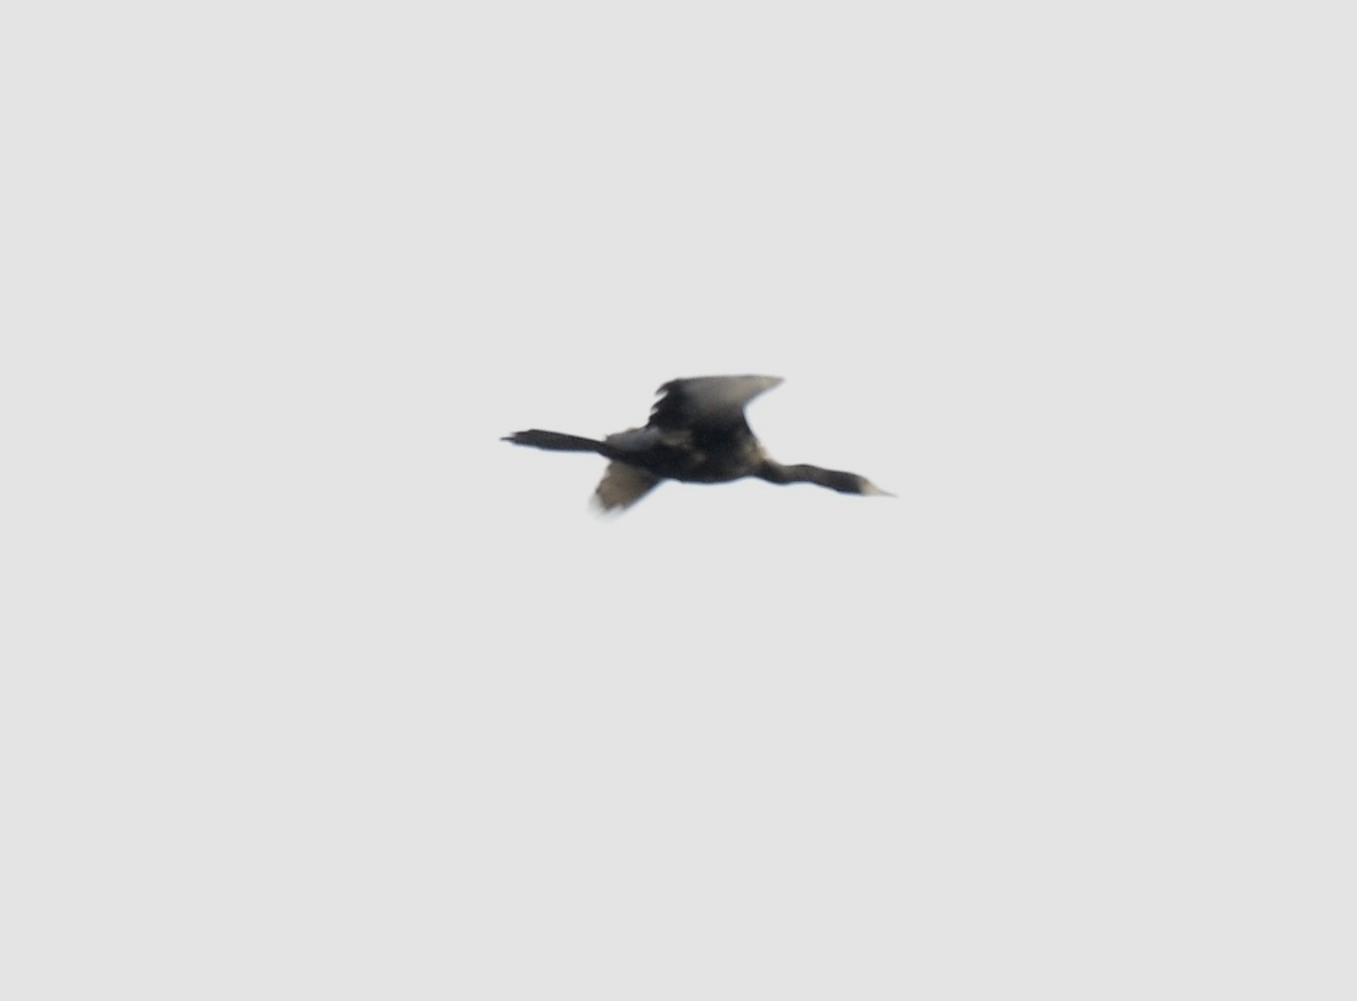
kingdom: Animalia
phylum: Chordata
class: Aves
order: Suliformes
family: Phalacrocoracidae
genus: Microcarbo
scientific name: Microcarbo niger
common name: Little cormorant
